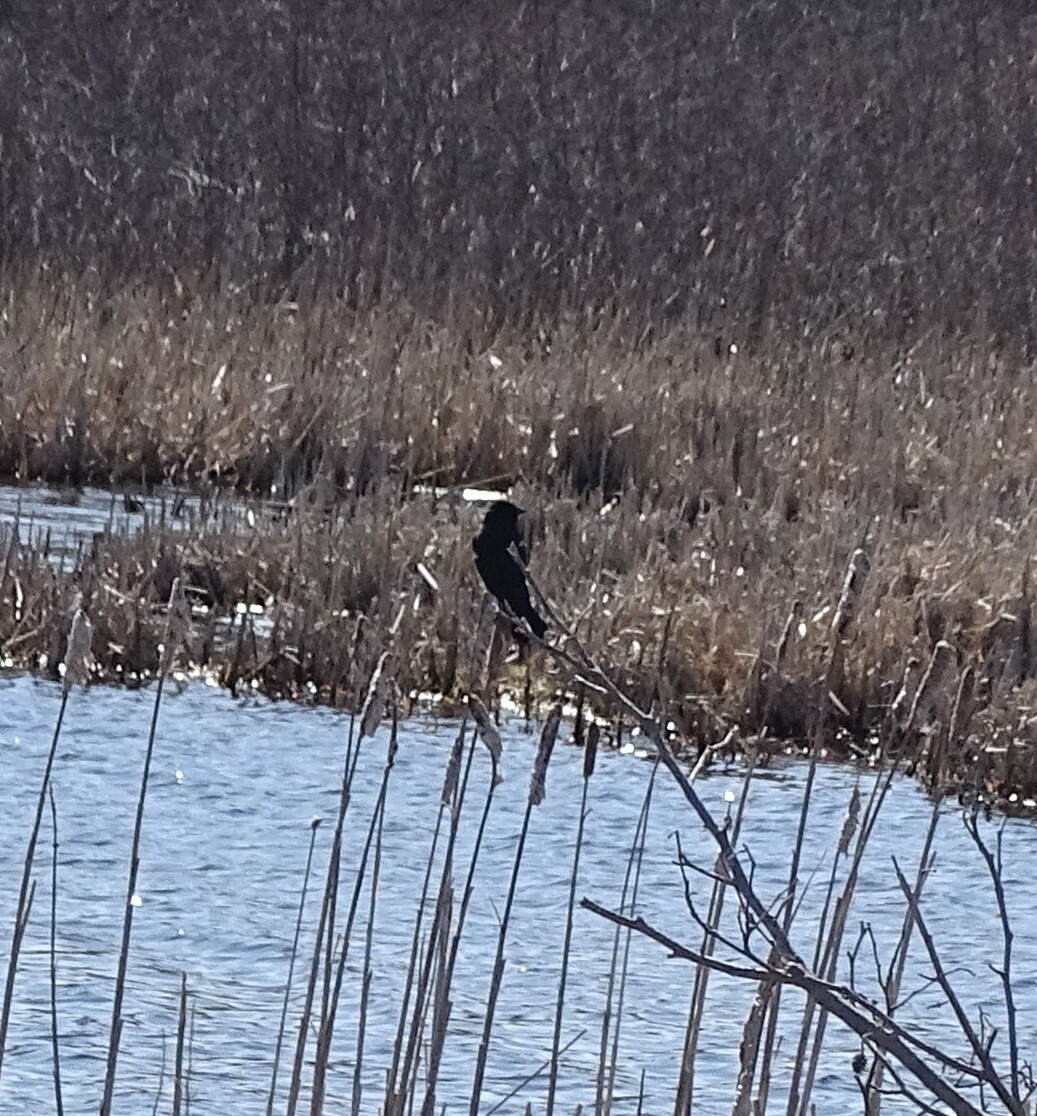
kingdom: Animalia
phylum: Chordata
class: Aves
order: Passeriformes
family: Icteridae
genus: Agelaius
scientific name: Agelaius phoeniceus
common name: Red-winged blackbird
